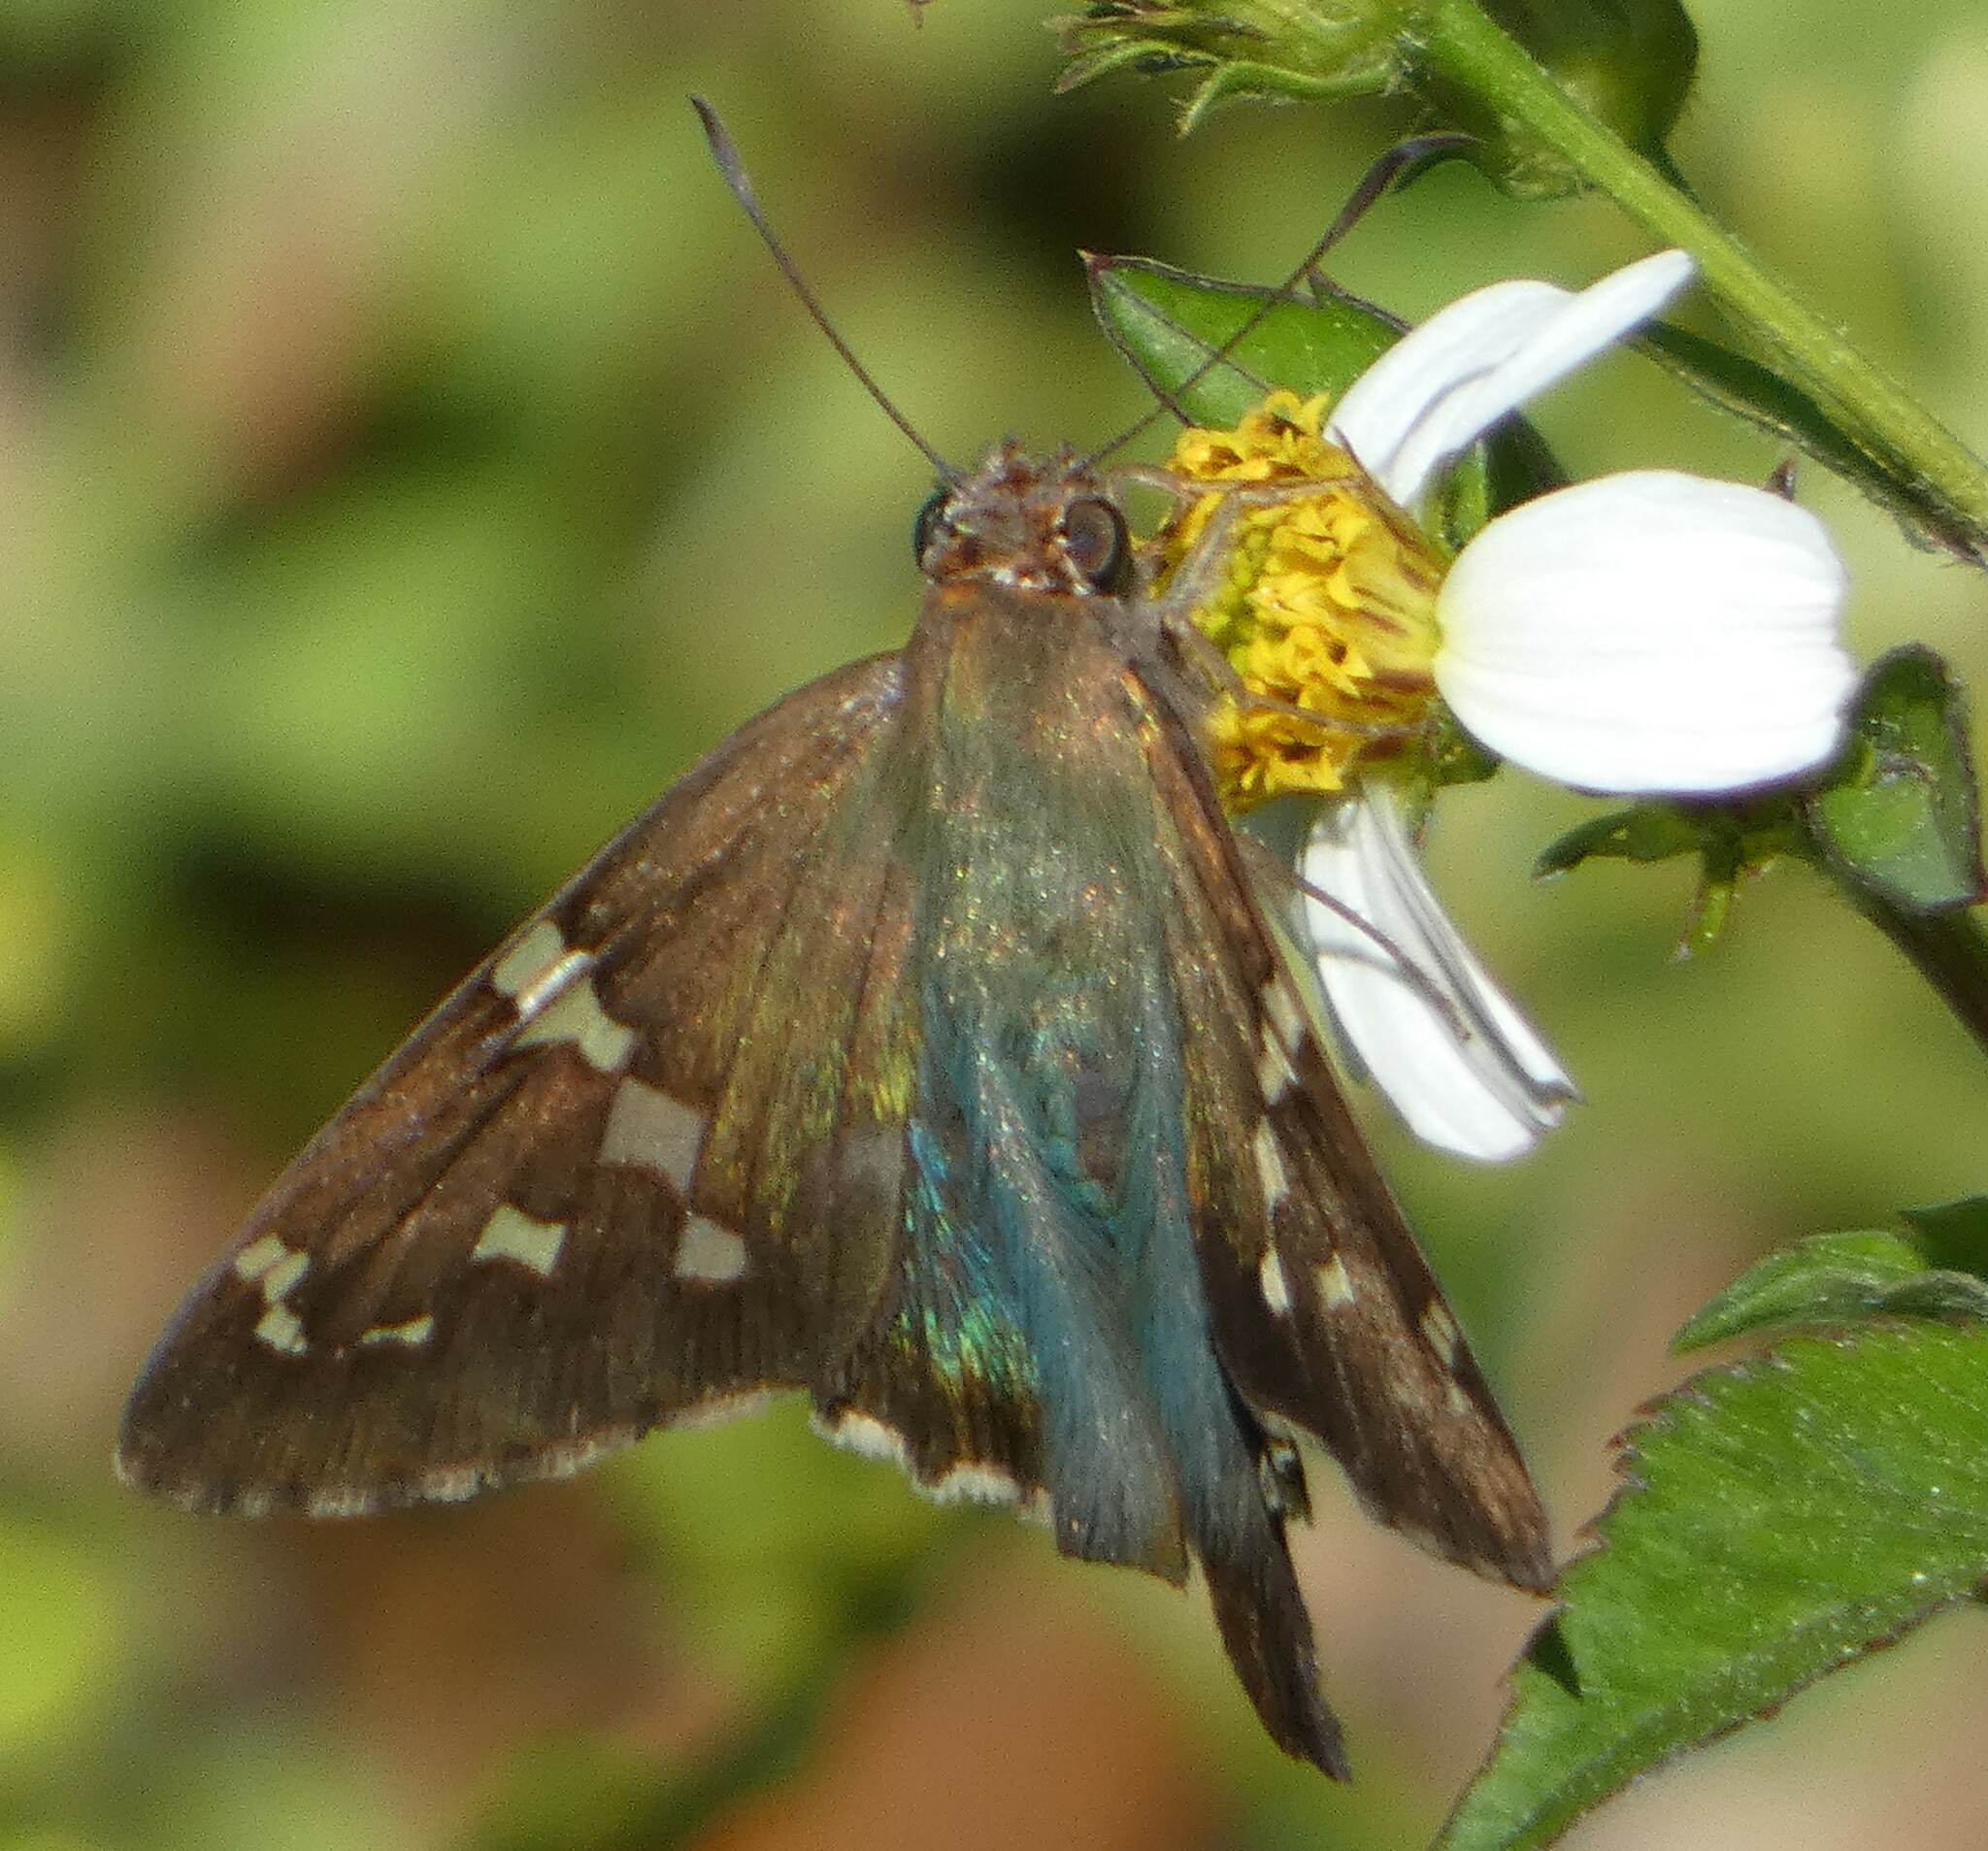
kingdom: Animalia
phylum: Arthropoda
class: Insecta
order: Lepidoptera
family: Hesperiidae
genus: Urbanus
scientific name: Urbanus proteus
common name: Long-tailed skipper
